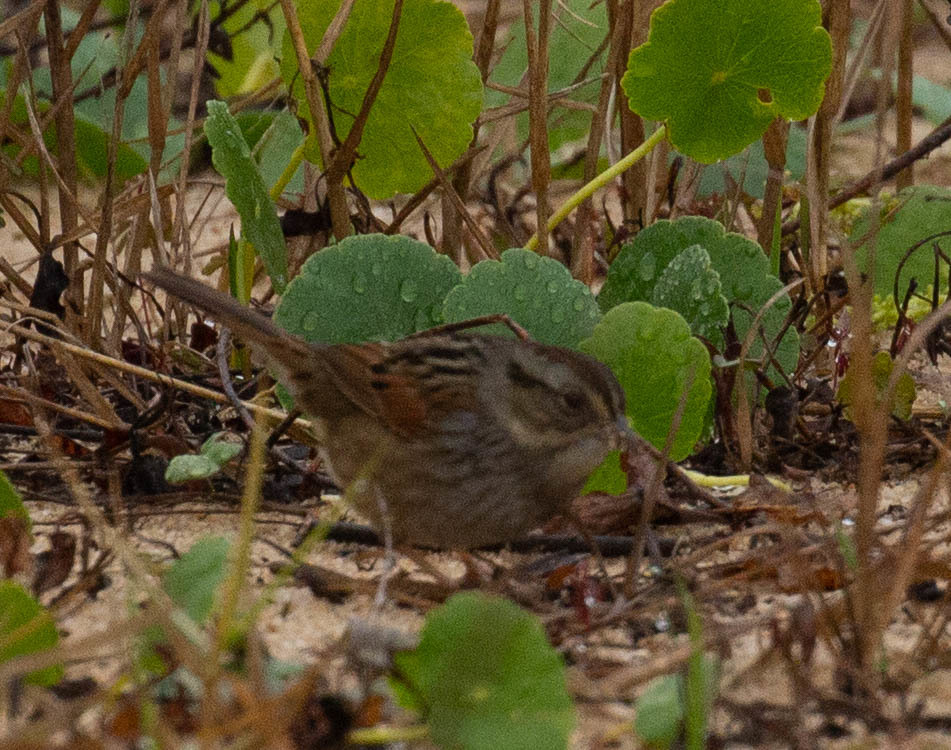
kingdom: Animalia
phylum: Chordata
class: Aves
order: Passeriformes
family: Passerellidae
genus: Melospiza
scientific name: Melospiza georgiana
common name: Swamp sparrow
